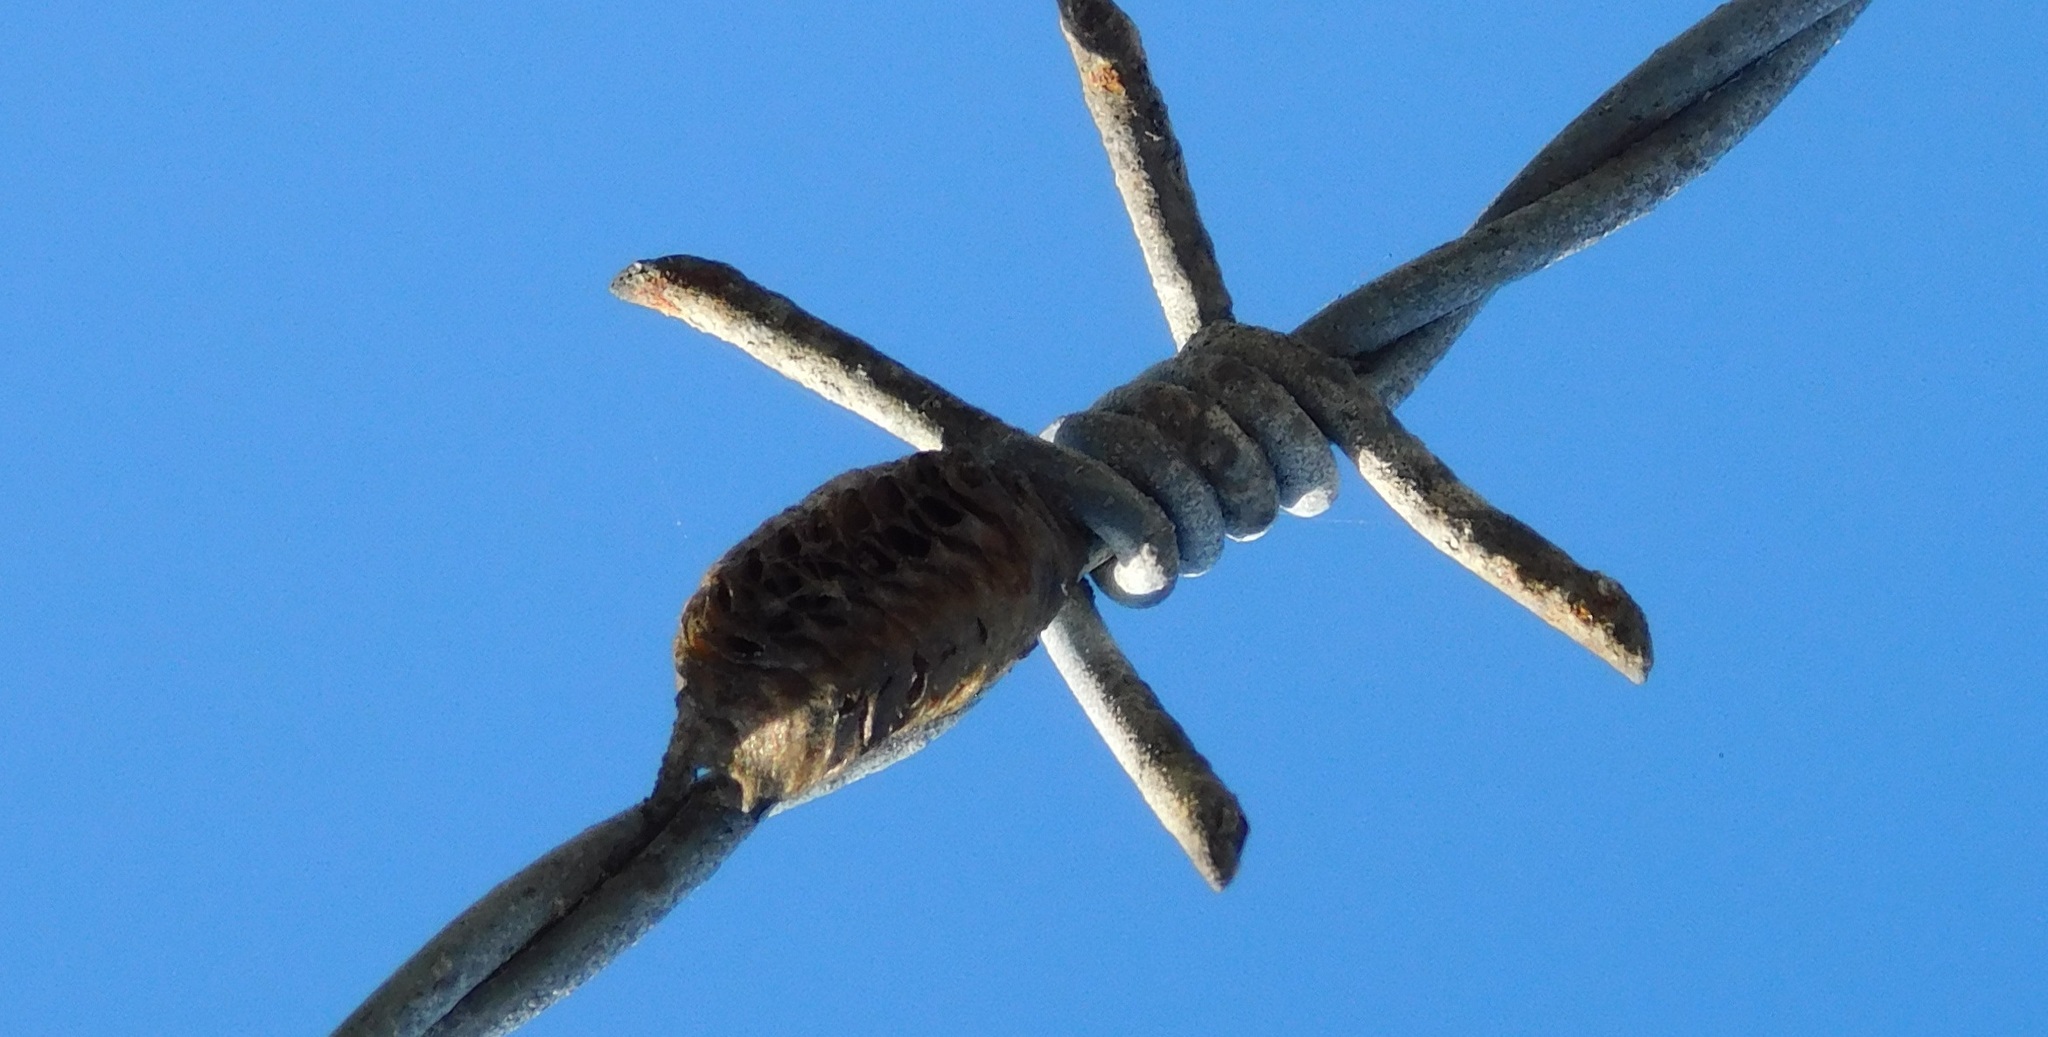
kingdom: Animalia
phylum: Arthropoda
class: Insecta
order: Mantodea
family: Mantidae
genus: Stagmomantis
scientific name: Stagmomantis carolina
